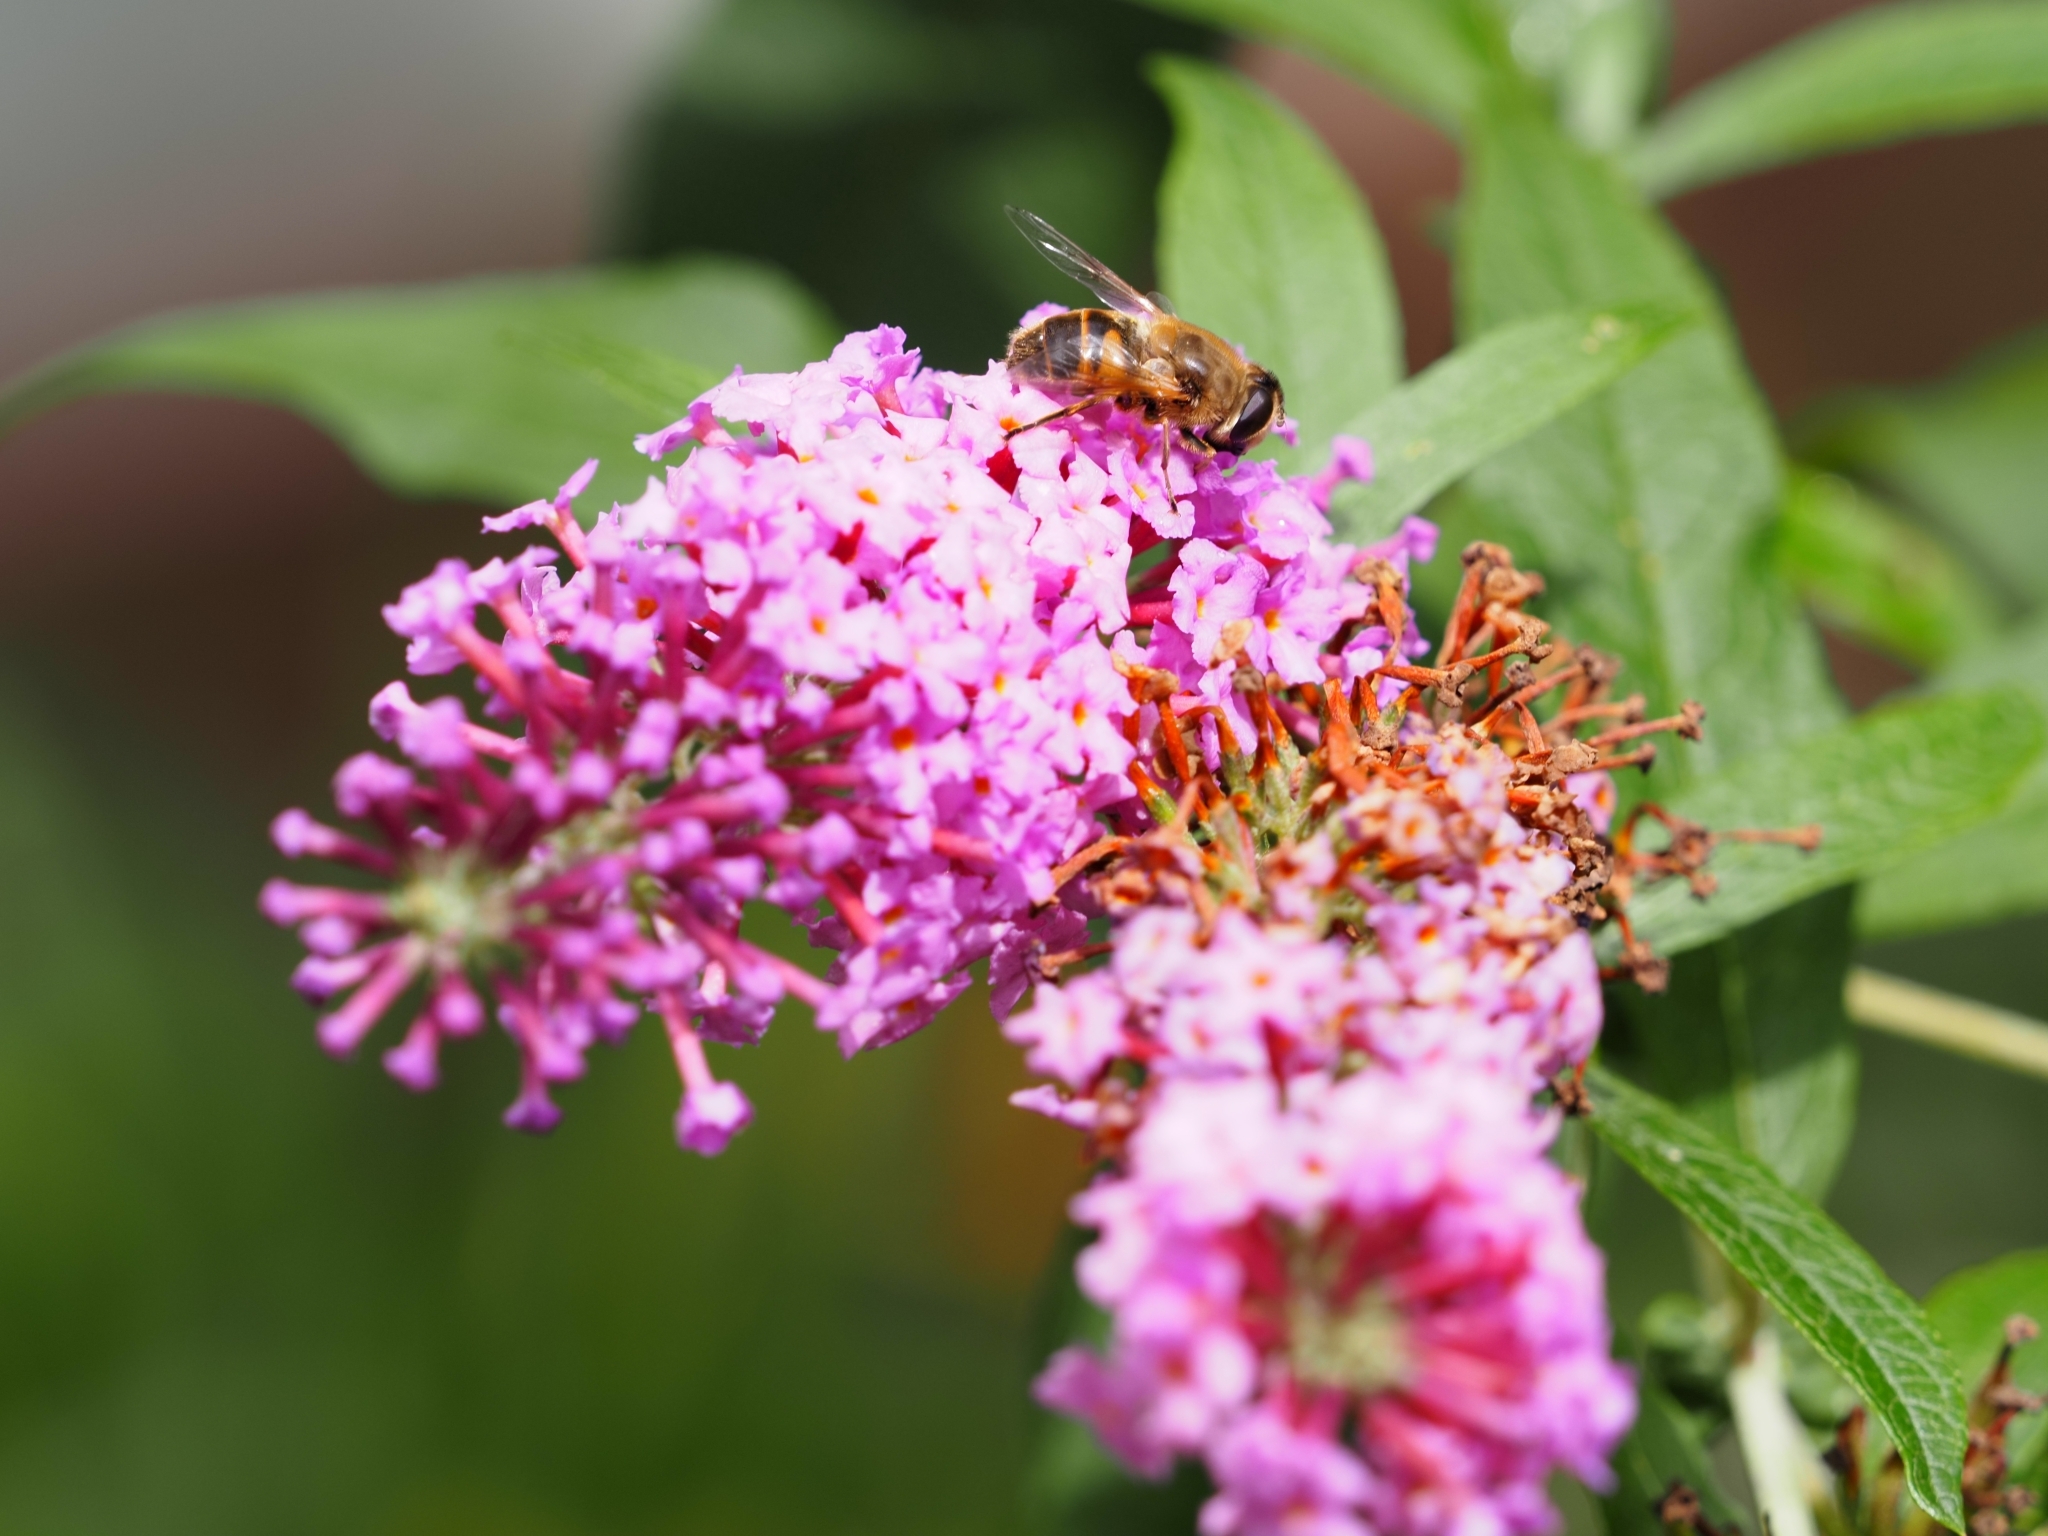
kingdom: Animalia
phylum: Arthropoda
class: Insecta
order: Diptera
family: Syrphidae
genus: Eristalis
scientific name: Eristalis tenax
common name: Drone fly
